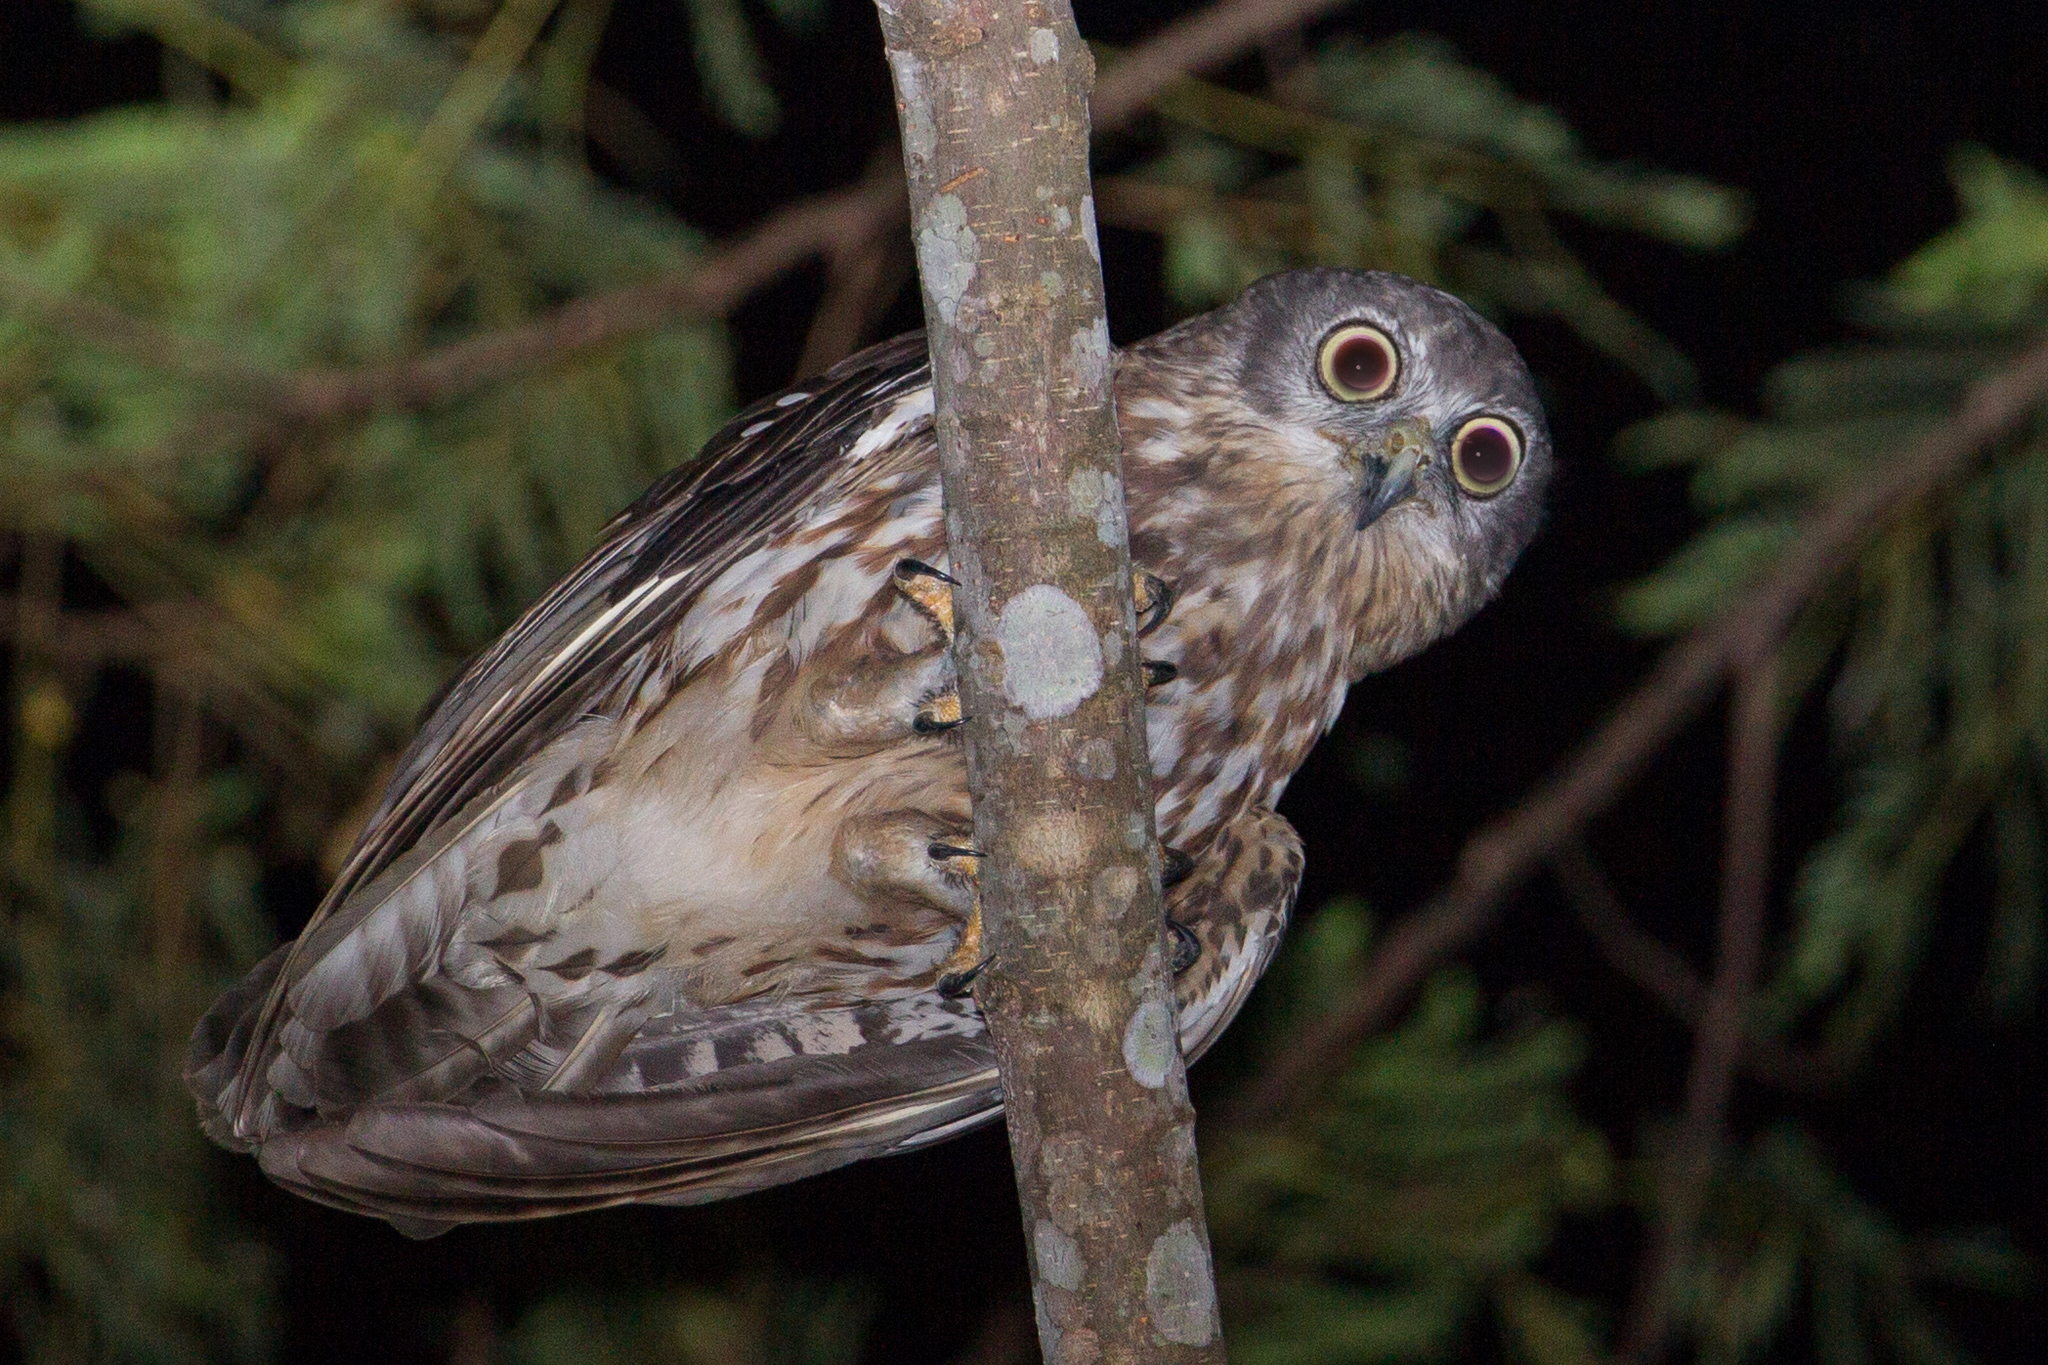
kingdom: Animalia
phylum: Chordata
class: Aves
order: Strigiformes
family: Strigidae
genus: Ninox
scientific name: Ninox connivens
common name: Barking owl
